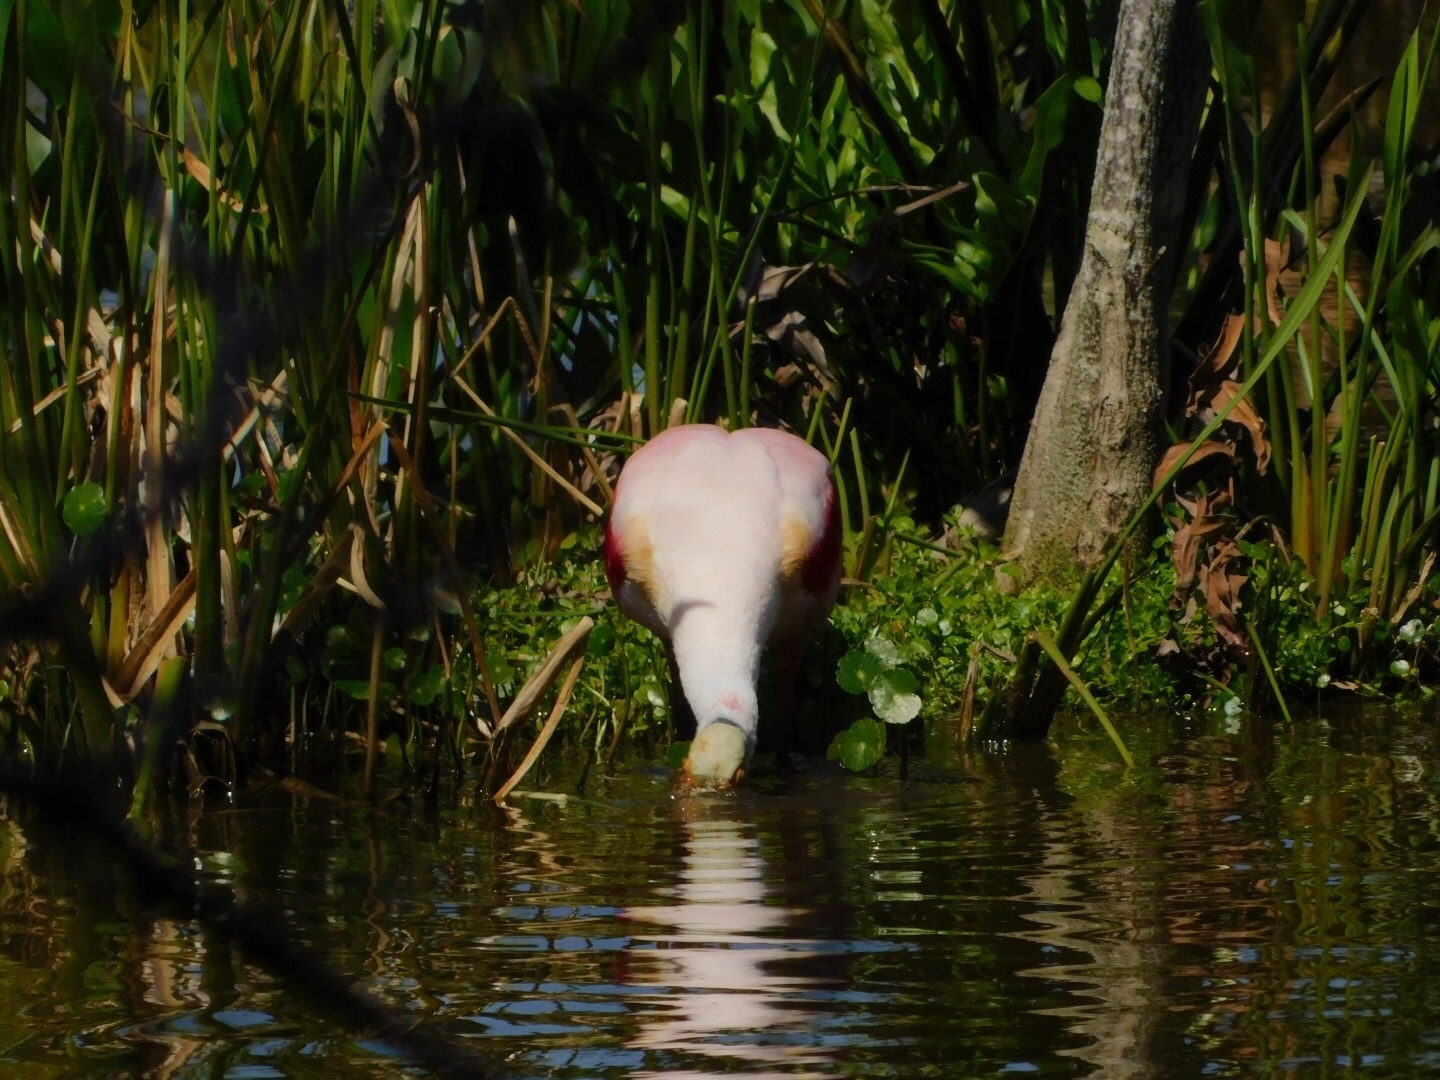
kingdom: Animalia
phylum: Chordata
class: Aves
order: Pelecaniformes
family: Threskiornithidae
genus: Platalea
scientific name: Platalea ajaja
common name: Roseate spoonbill
